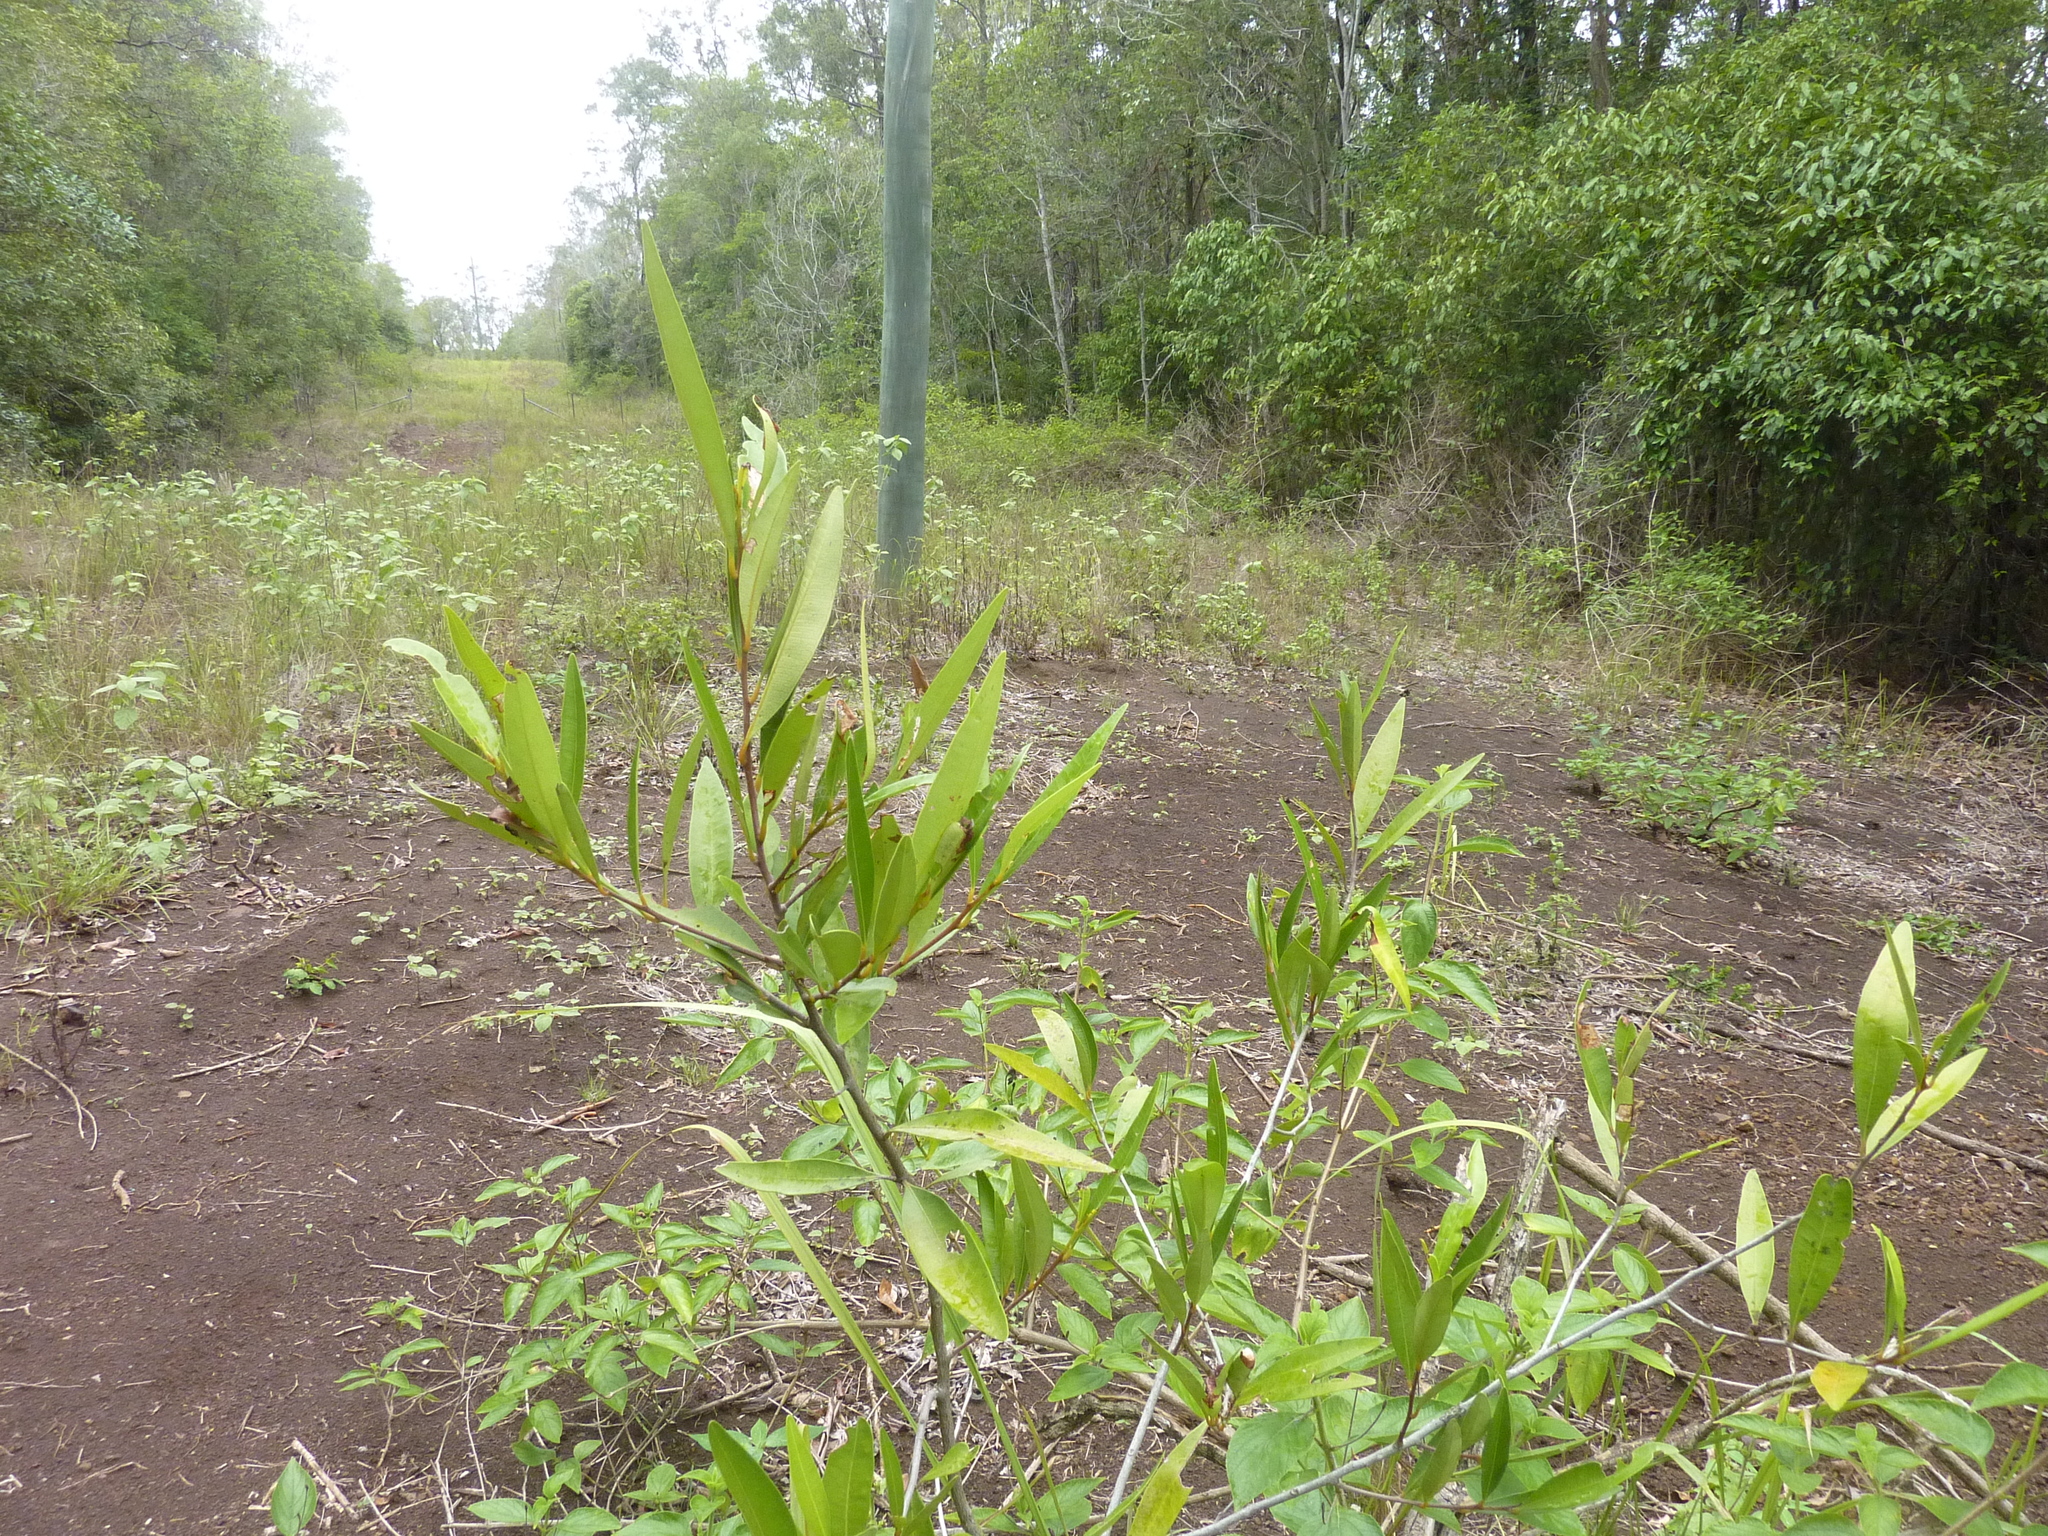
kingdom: Plantae
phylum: Tracheophyta
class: Magnoliopsida
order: Sapindales
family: Simaroubaceae
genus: Samadera
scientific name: Samadera bidwillii
